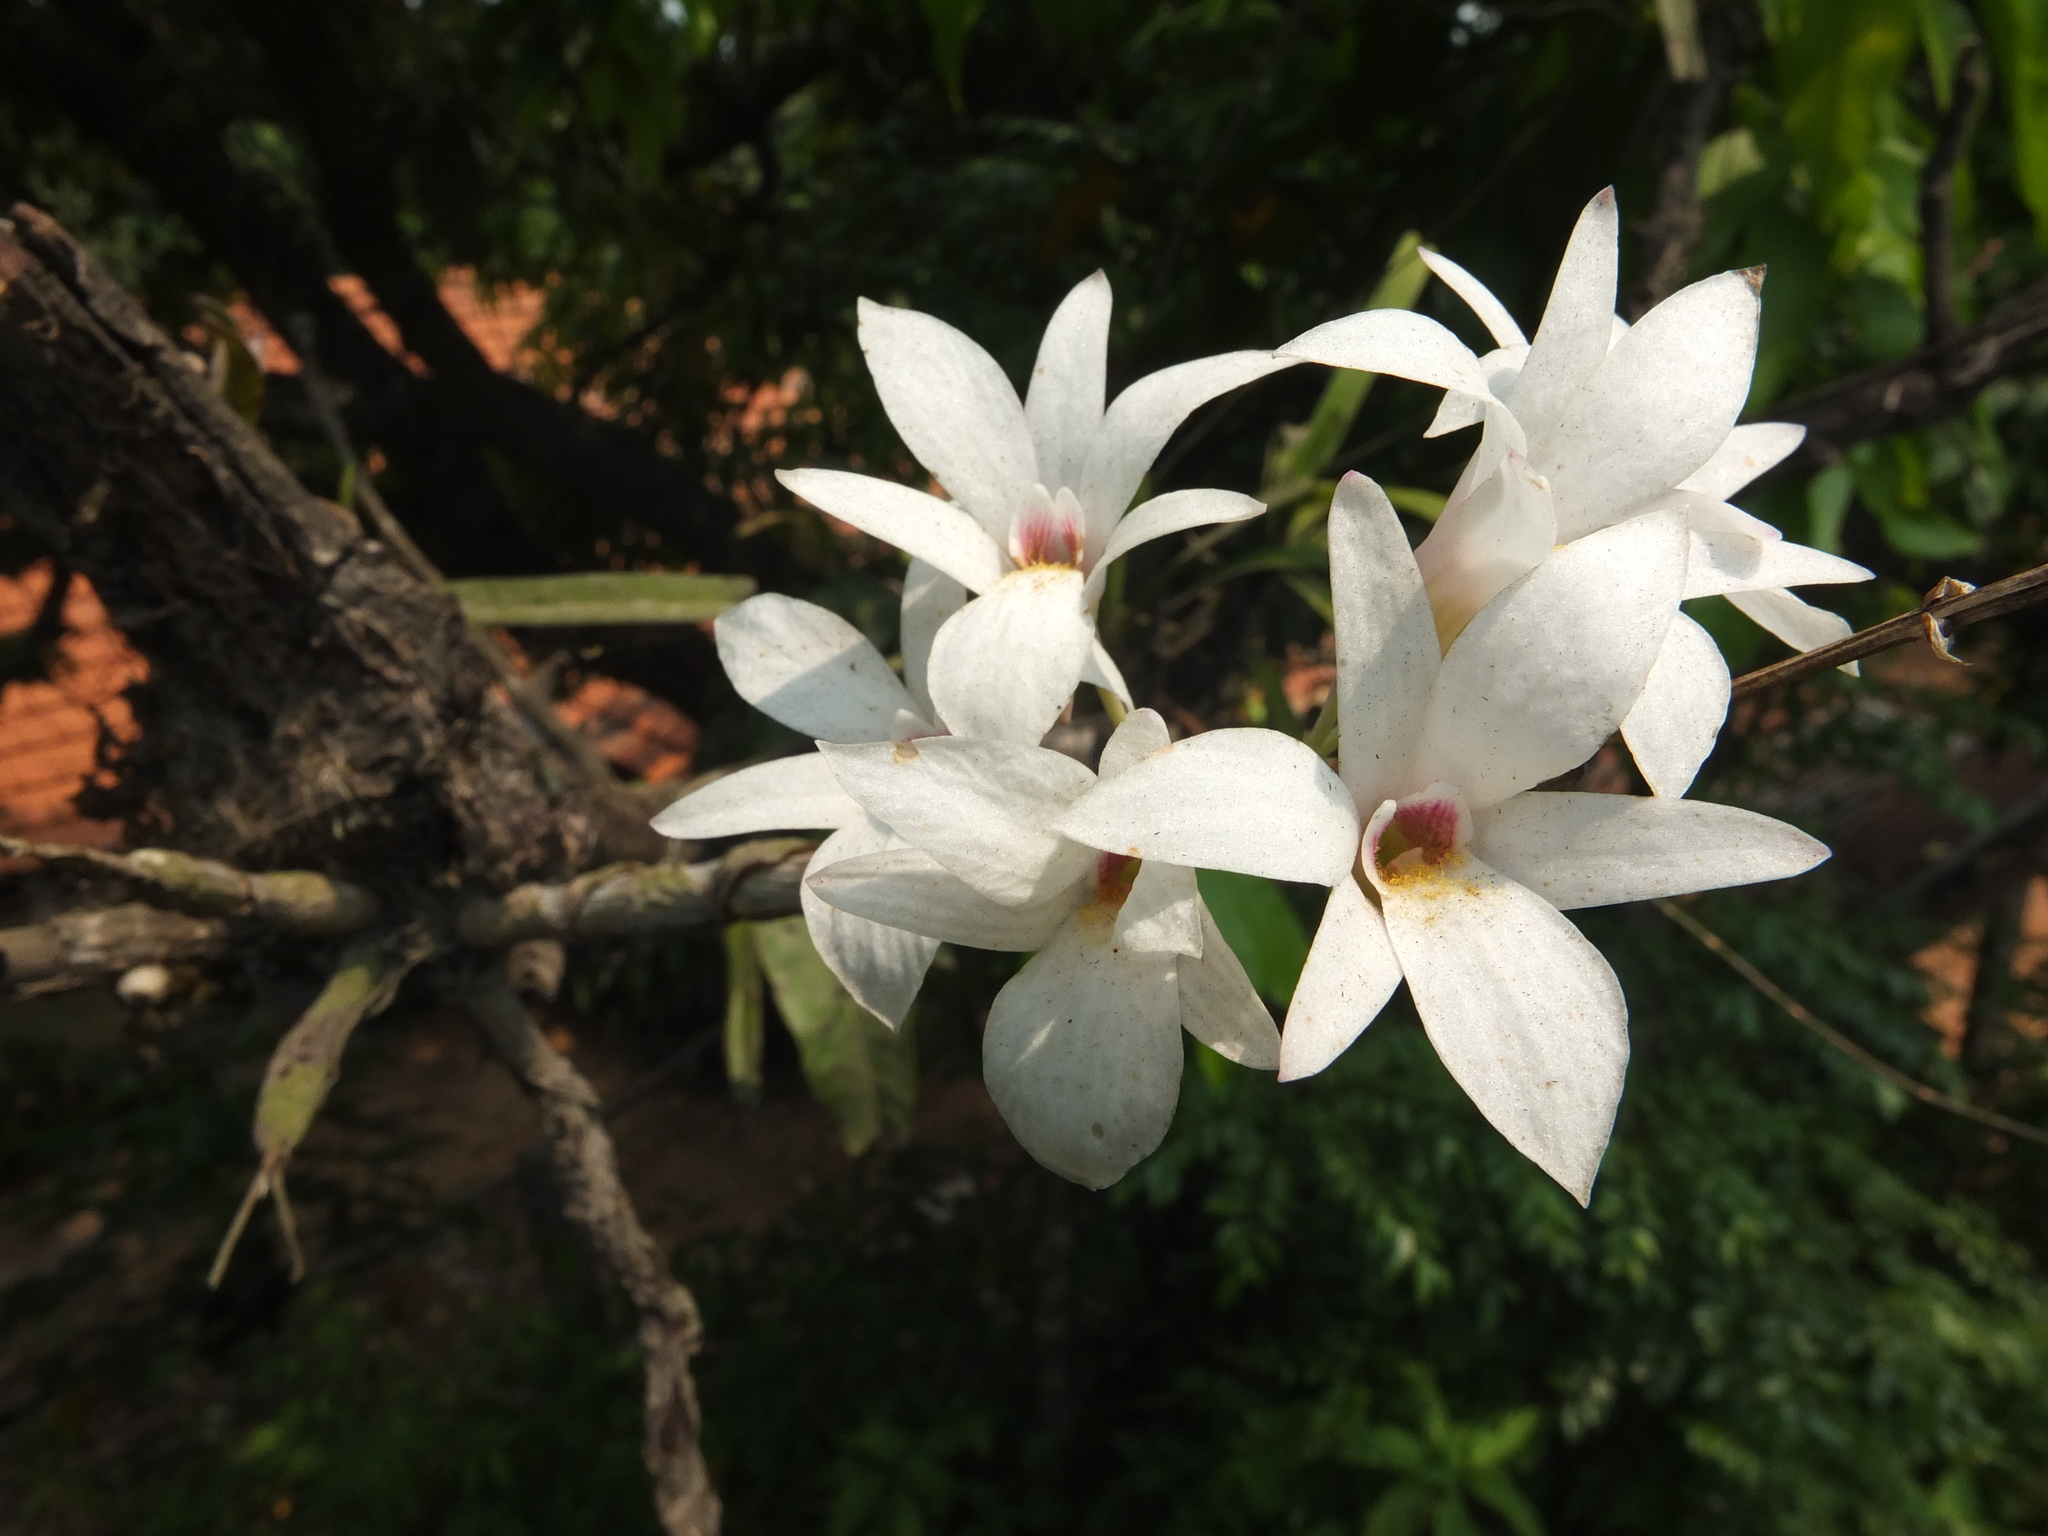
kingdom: Plantae
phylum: Tracheophyta
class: Liliopsida
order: Asparagales
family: Orchidaceae
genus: Dendrobium
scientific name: Dendrobium barbatulum
